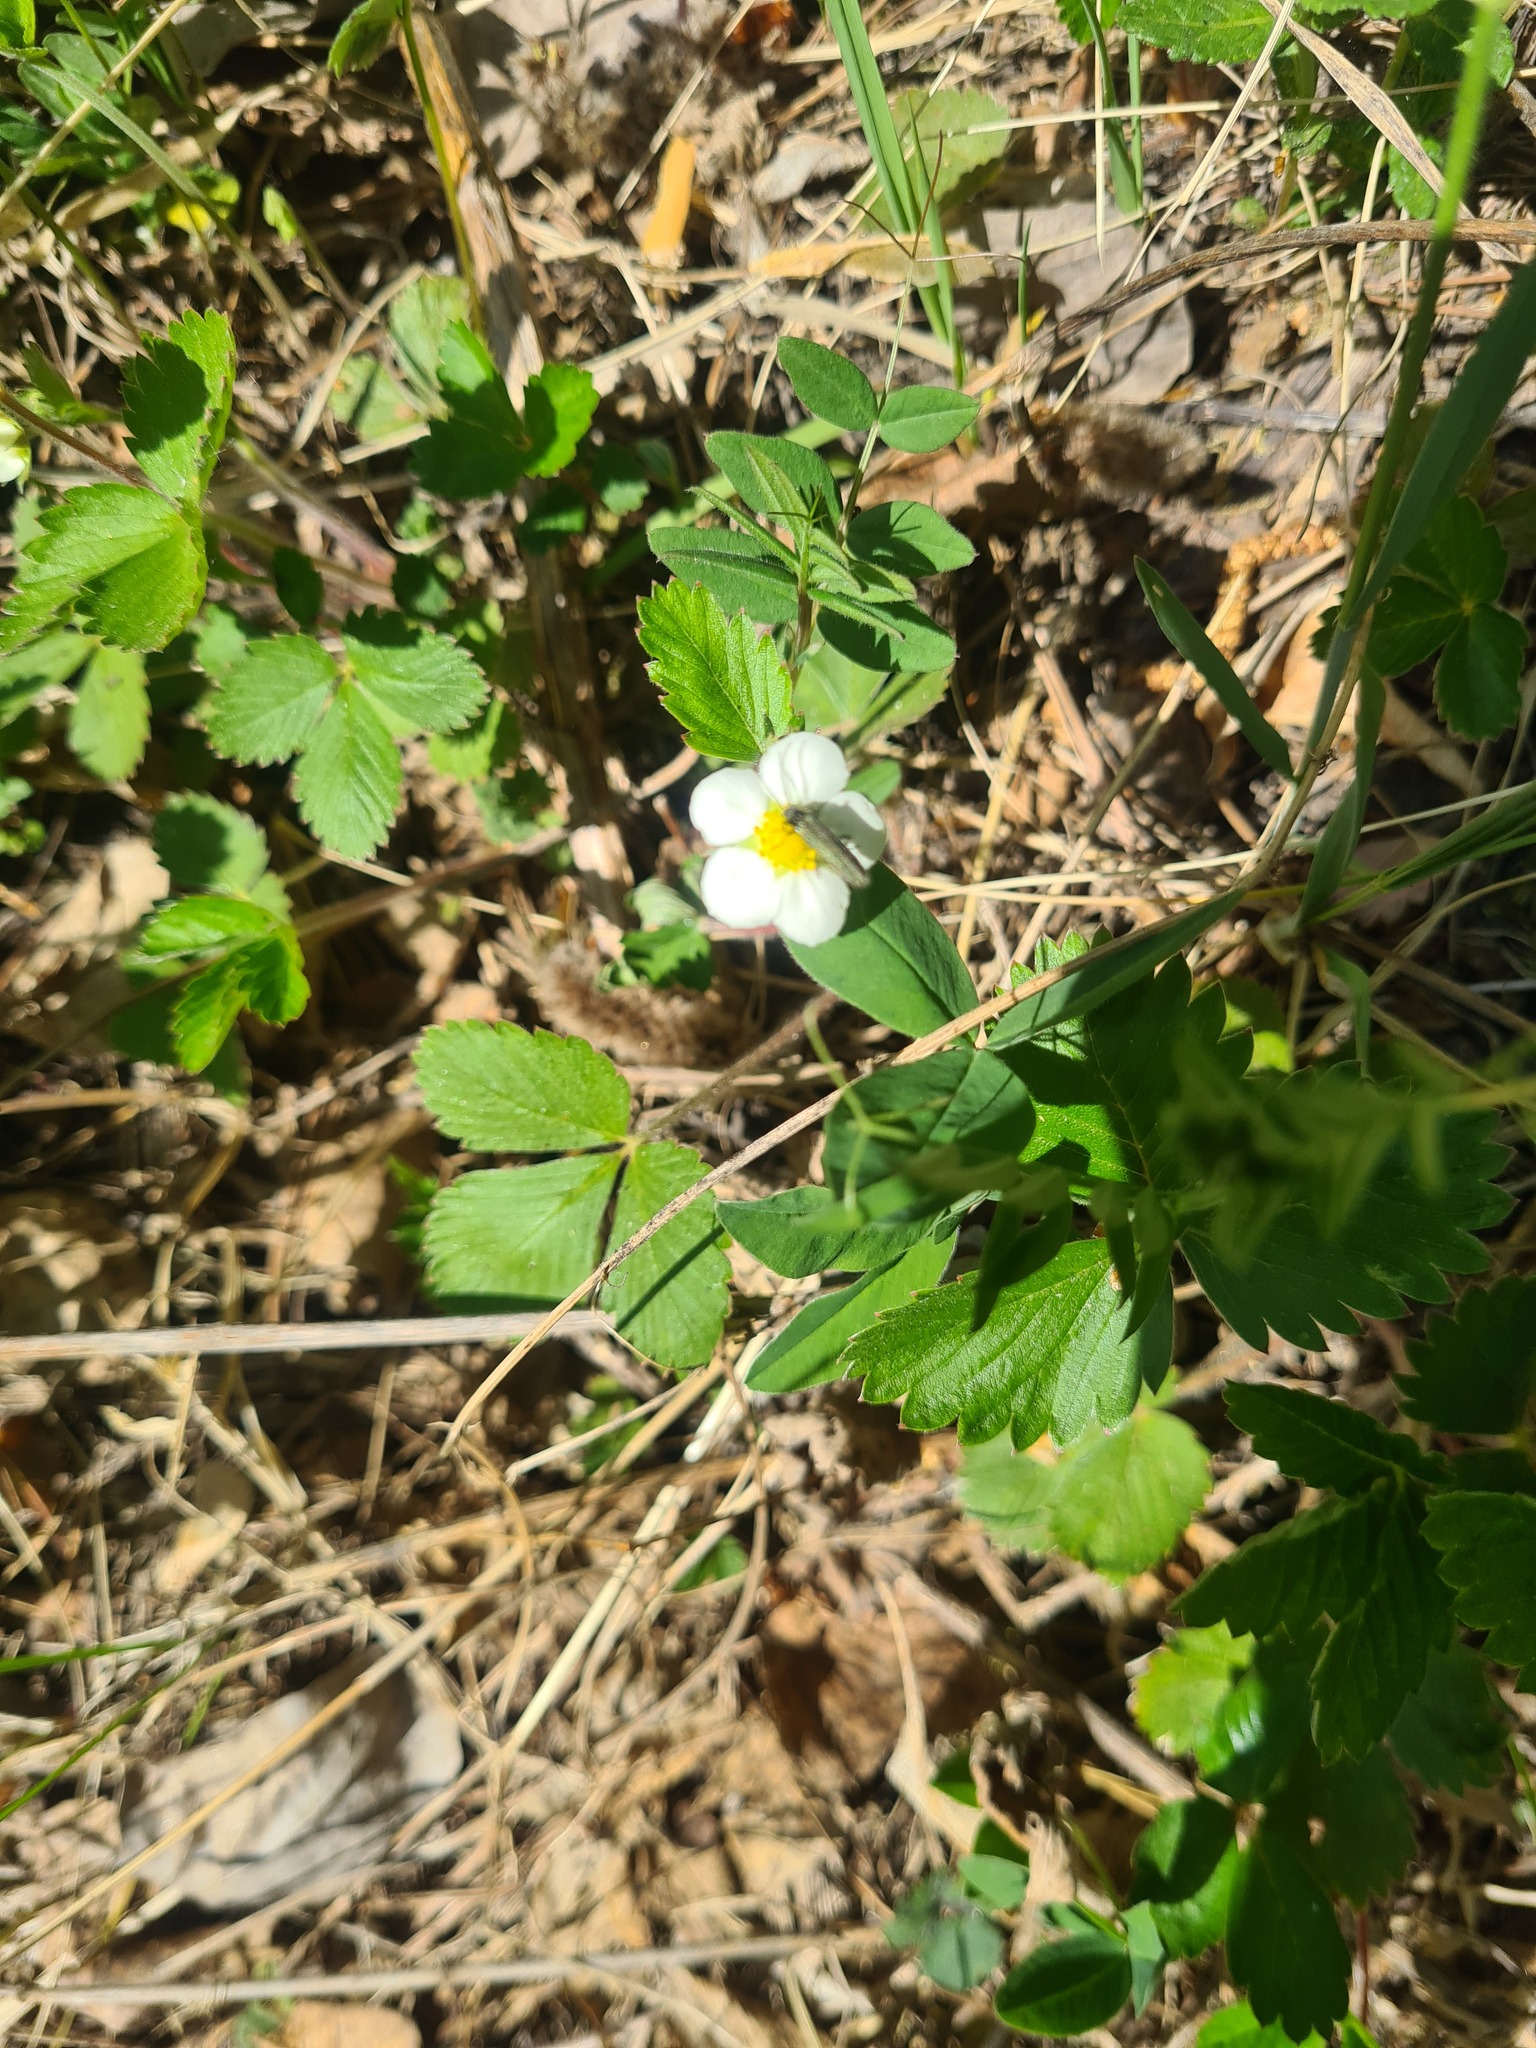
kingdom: Plantae
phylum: Tracheophyta
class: Magnoliopsida
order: Rosales
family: Rosaceae
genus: Fragaria
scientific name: Fragaria vesca
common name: Wild strawberry
